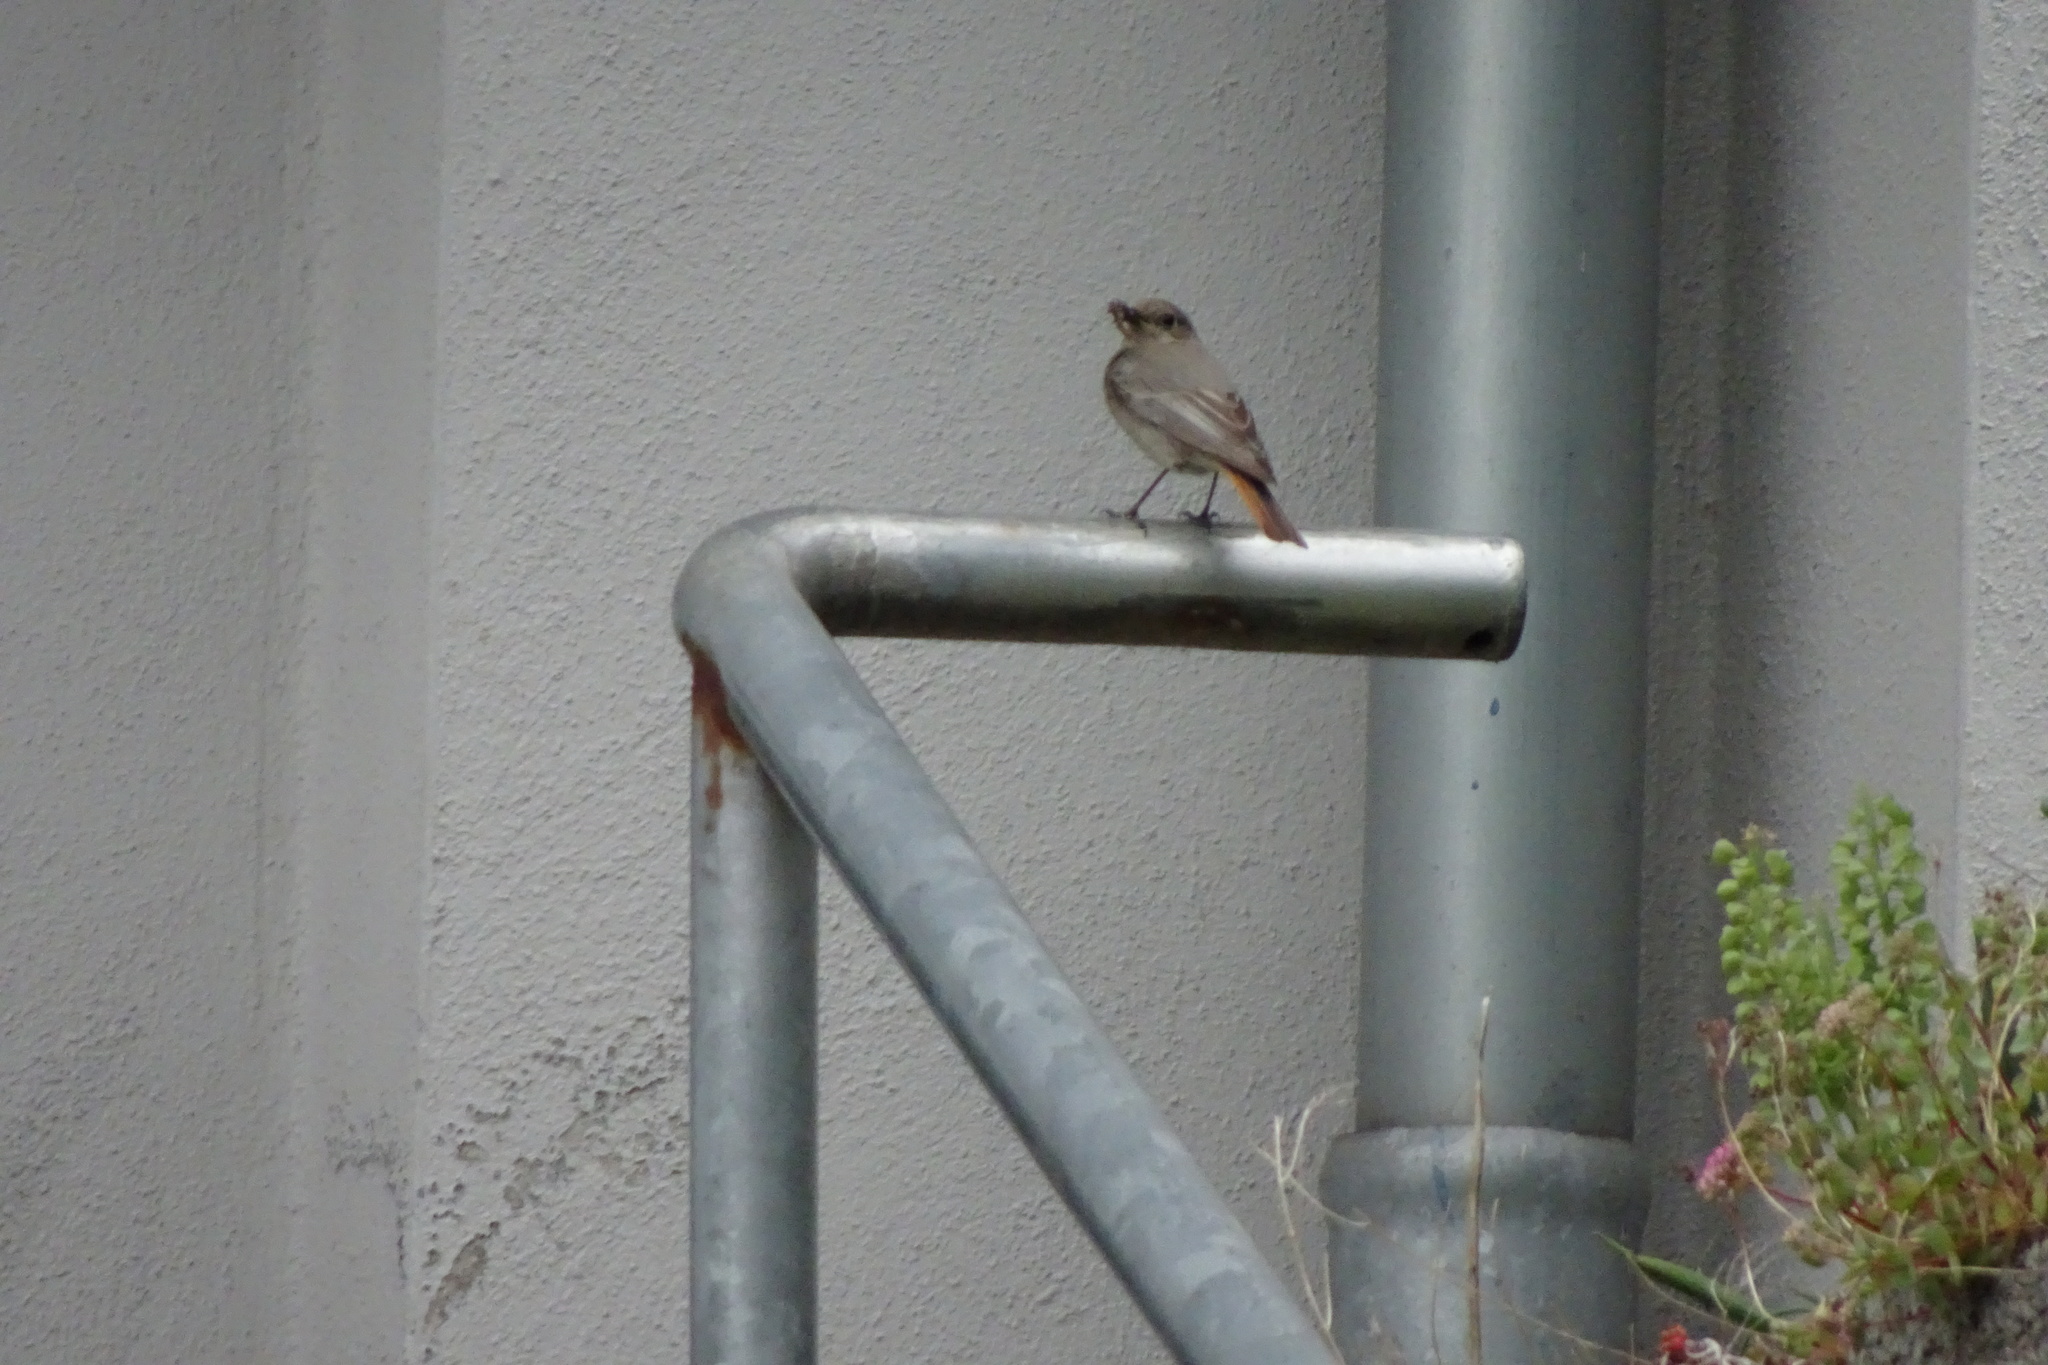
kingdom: Animalia
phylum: Chordata
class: Aves
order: Passeriformes
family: Muscicapidae
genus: Phoenicurus
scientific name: Phoenicurus ochruros
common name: Black redstart
